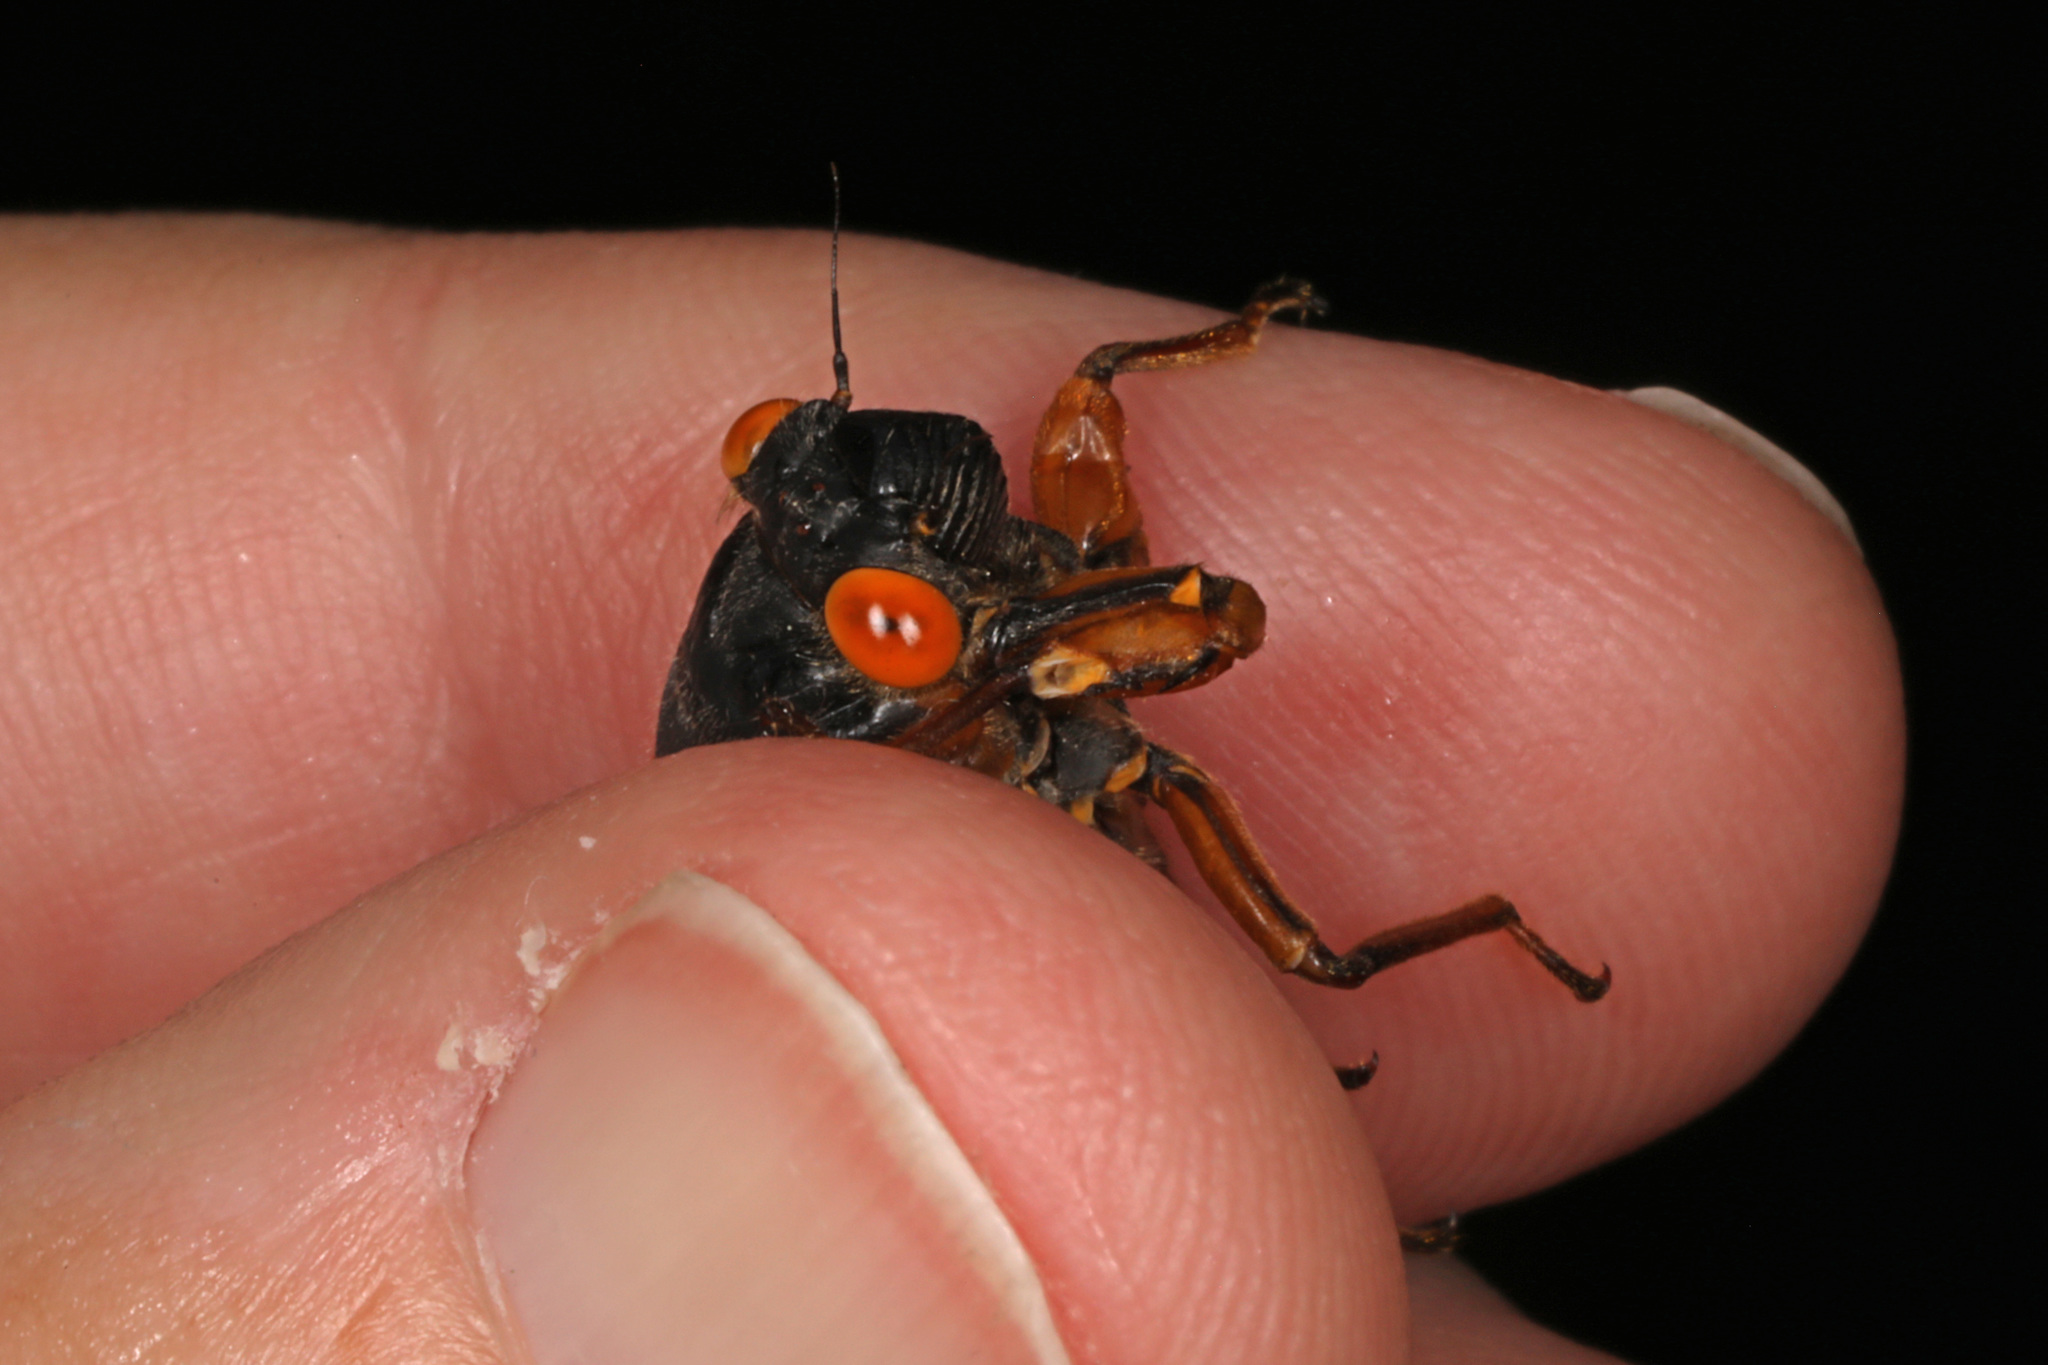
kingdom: Animalia
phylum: Arthropoda
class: Insecta
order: Hemiptera
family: Cicadidae
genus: Magicicada
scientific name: Magicicada septendecim
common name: Periodical cicada
